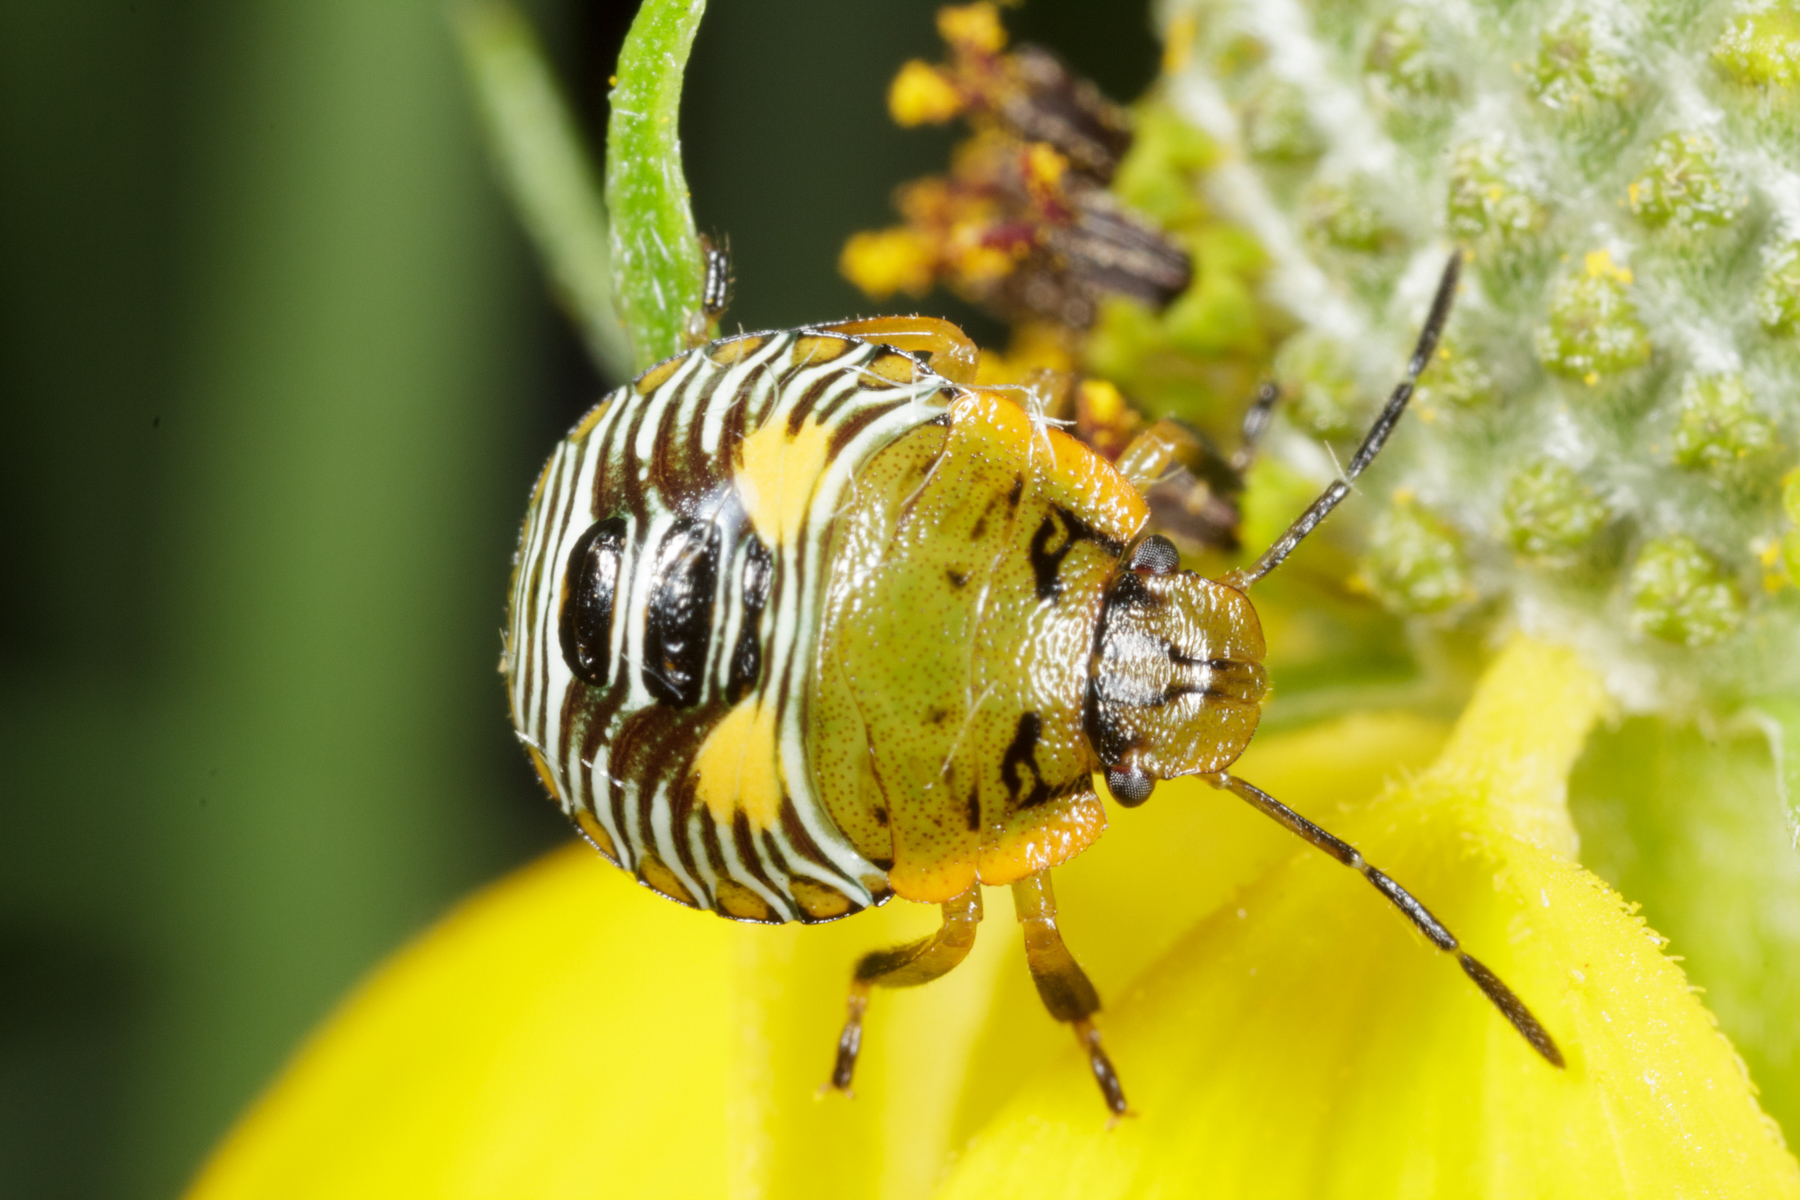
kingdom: Animalia
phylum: Arthropoda
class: Insecta
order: Hemiptera
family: Pentatomidae
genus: Chinavia
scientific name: Chinavia hilaris
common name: Green stink bug
